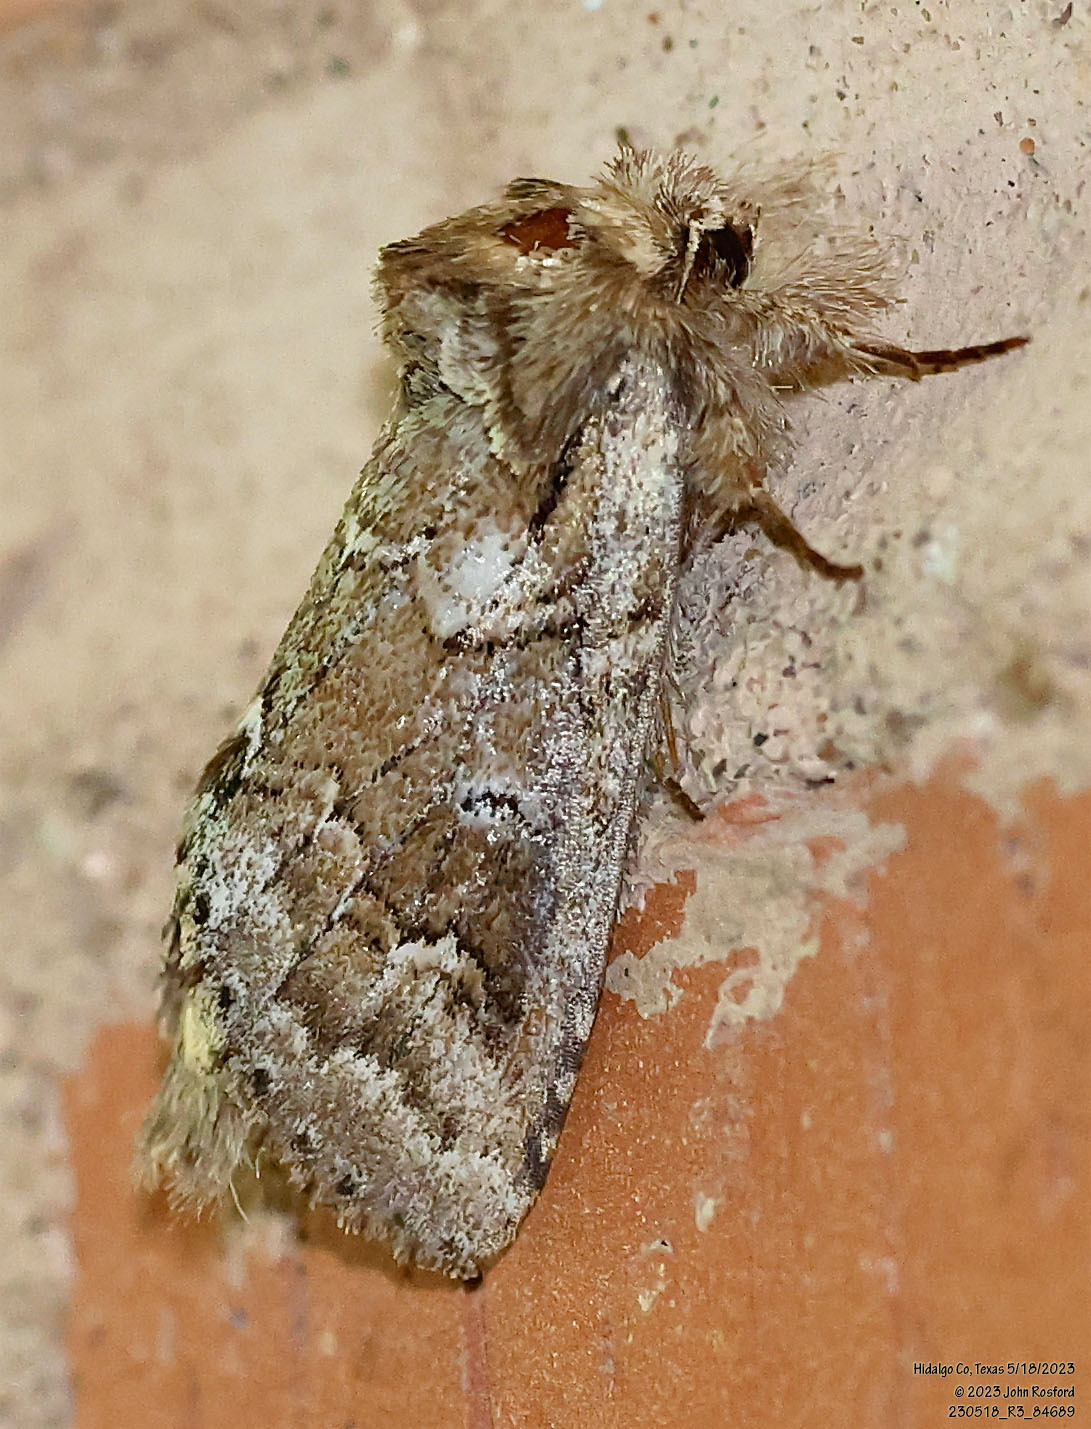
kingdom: Animalia
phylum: Arthropoda
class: Insecta
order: Lepidoptera
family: Notodontidae
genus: Lochmaeus
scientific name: Lochmaeus bilineata
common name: Double-lined prominent
